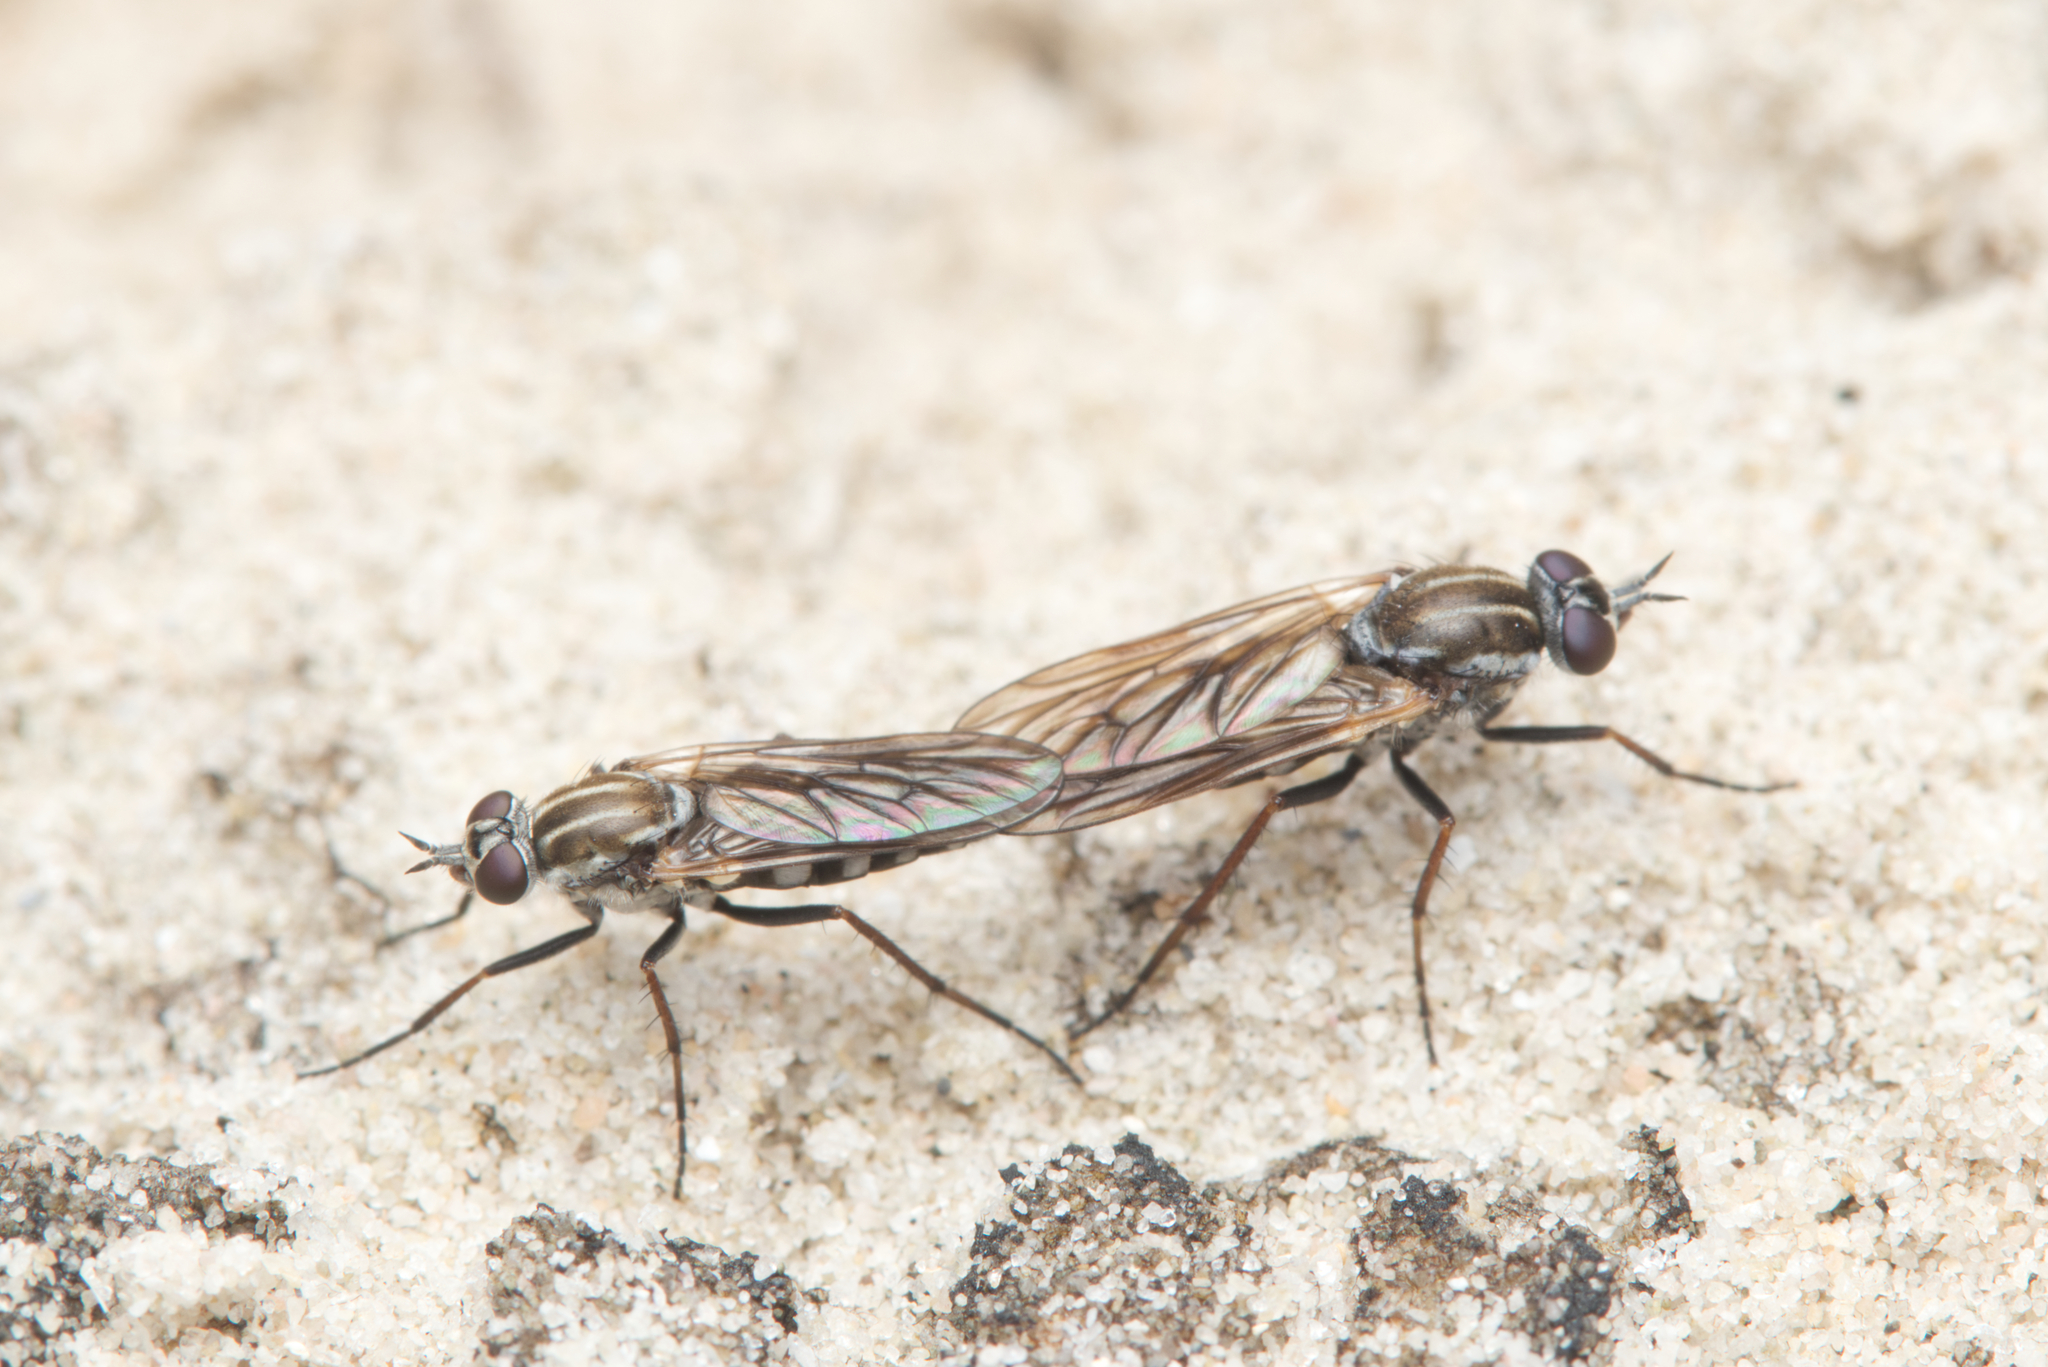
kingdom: Animalia
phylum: Arthropoda
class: Insecta
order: Diptera
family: Therevidae
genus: Anabarhynchus
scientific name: Anabarhynchus hyalipennis
